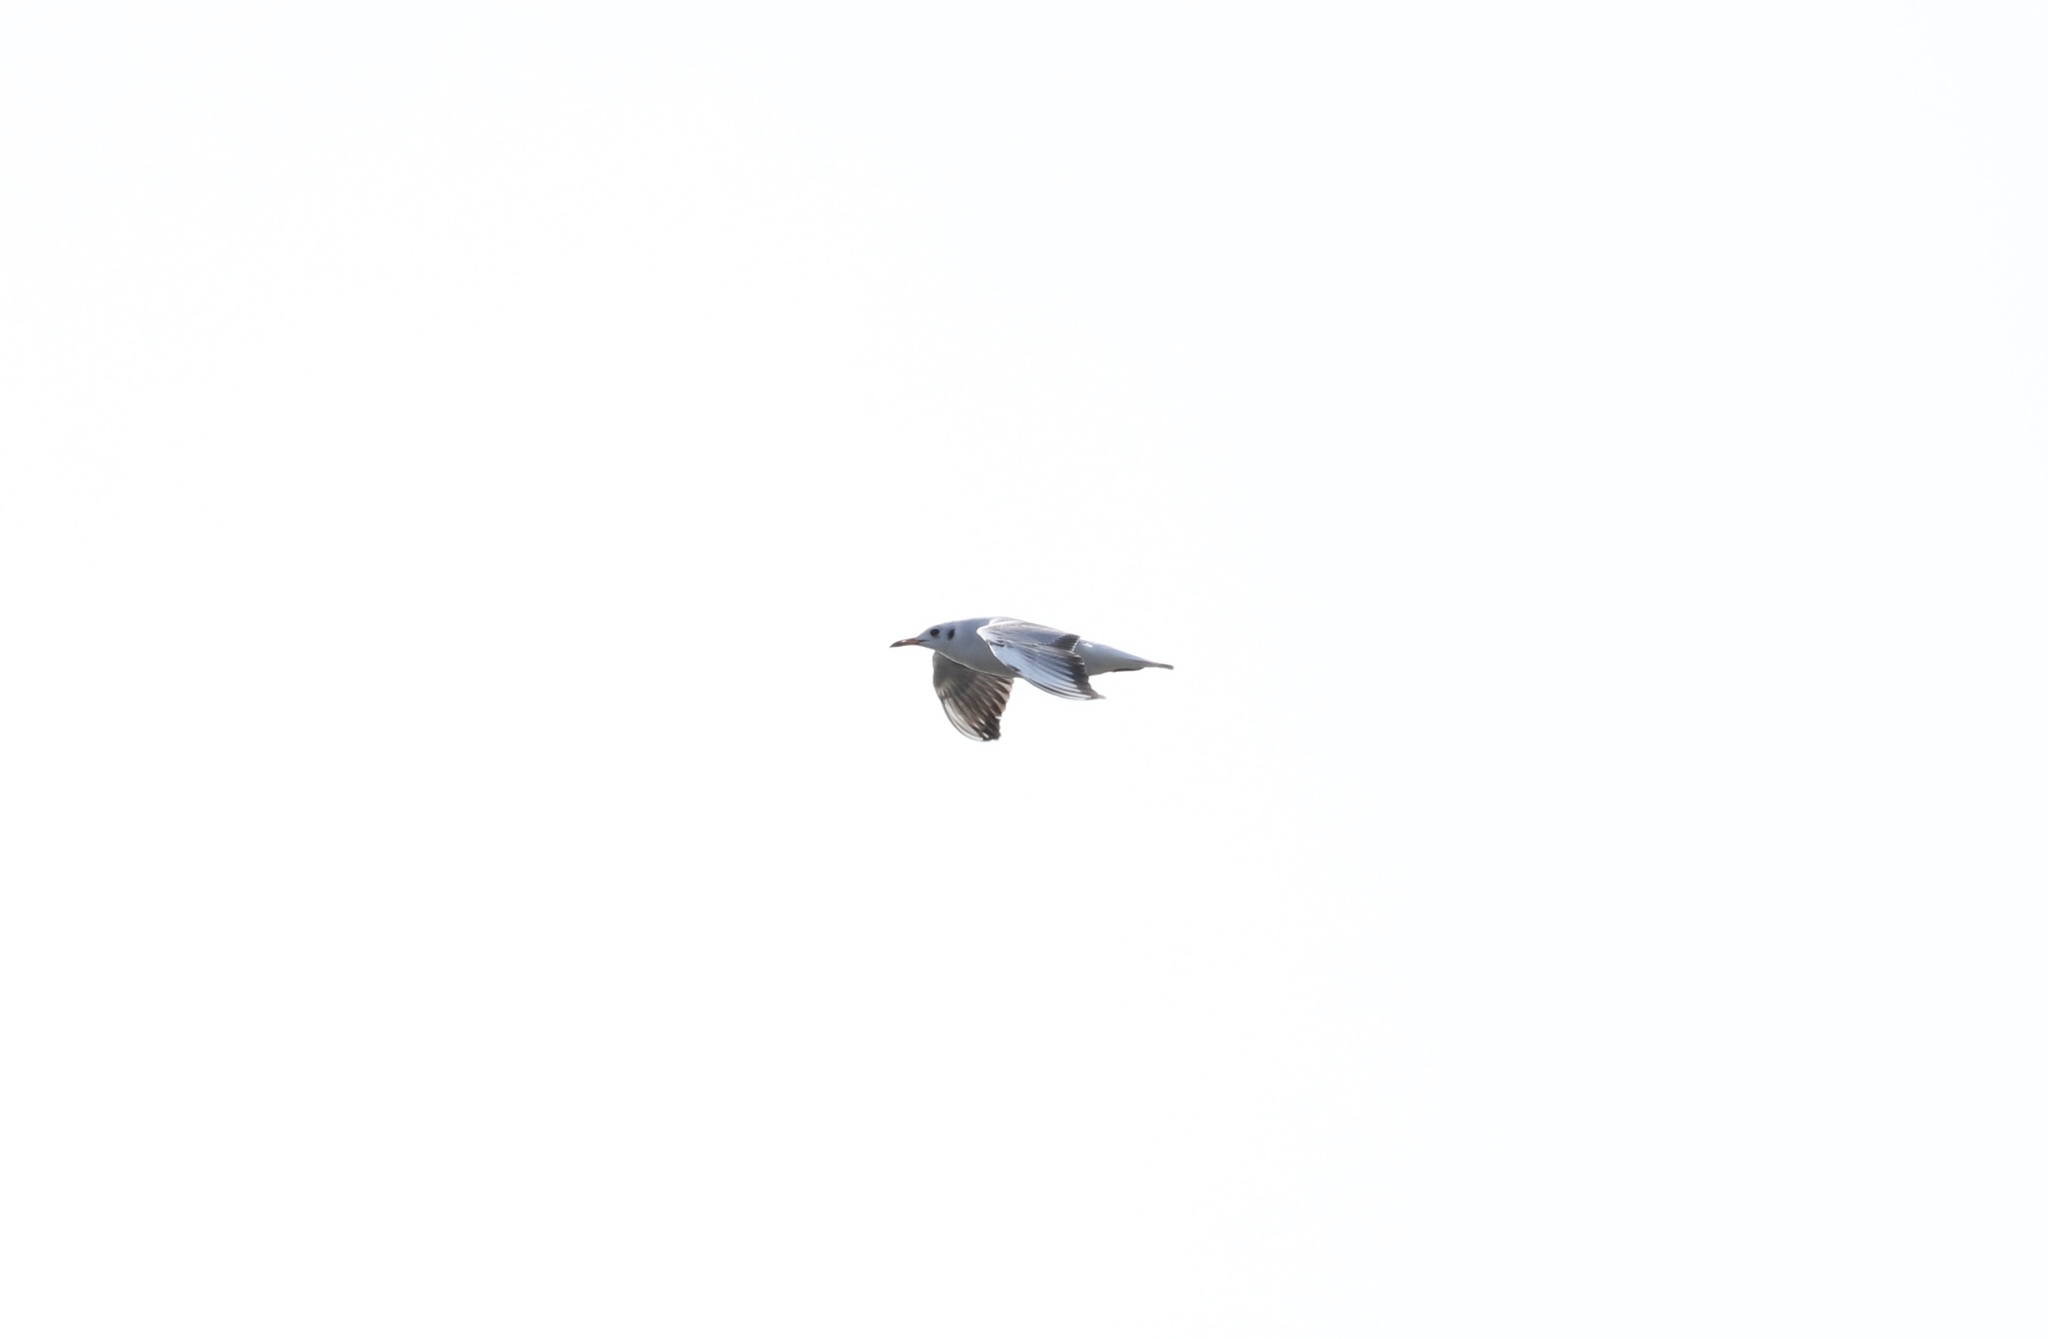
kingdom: Animalia
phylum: Chordata
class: Aves
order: Charadriiformes
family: Laridae
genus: Chroicocephalus
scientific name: Chroicocephalus ridibundus
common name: Black-headed gull
